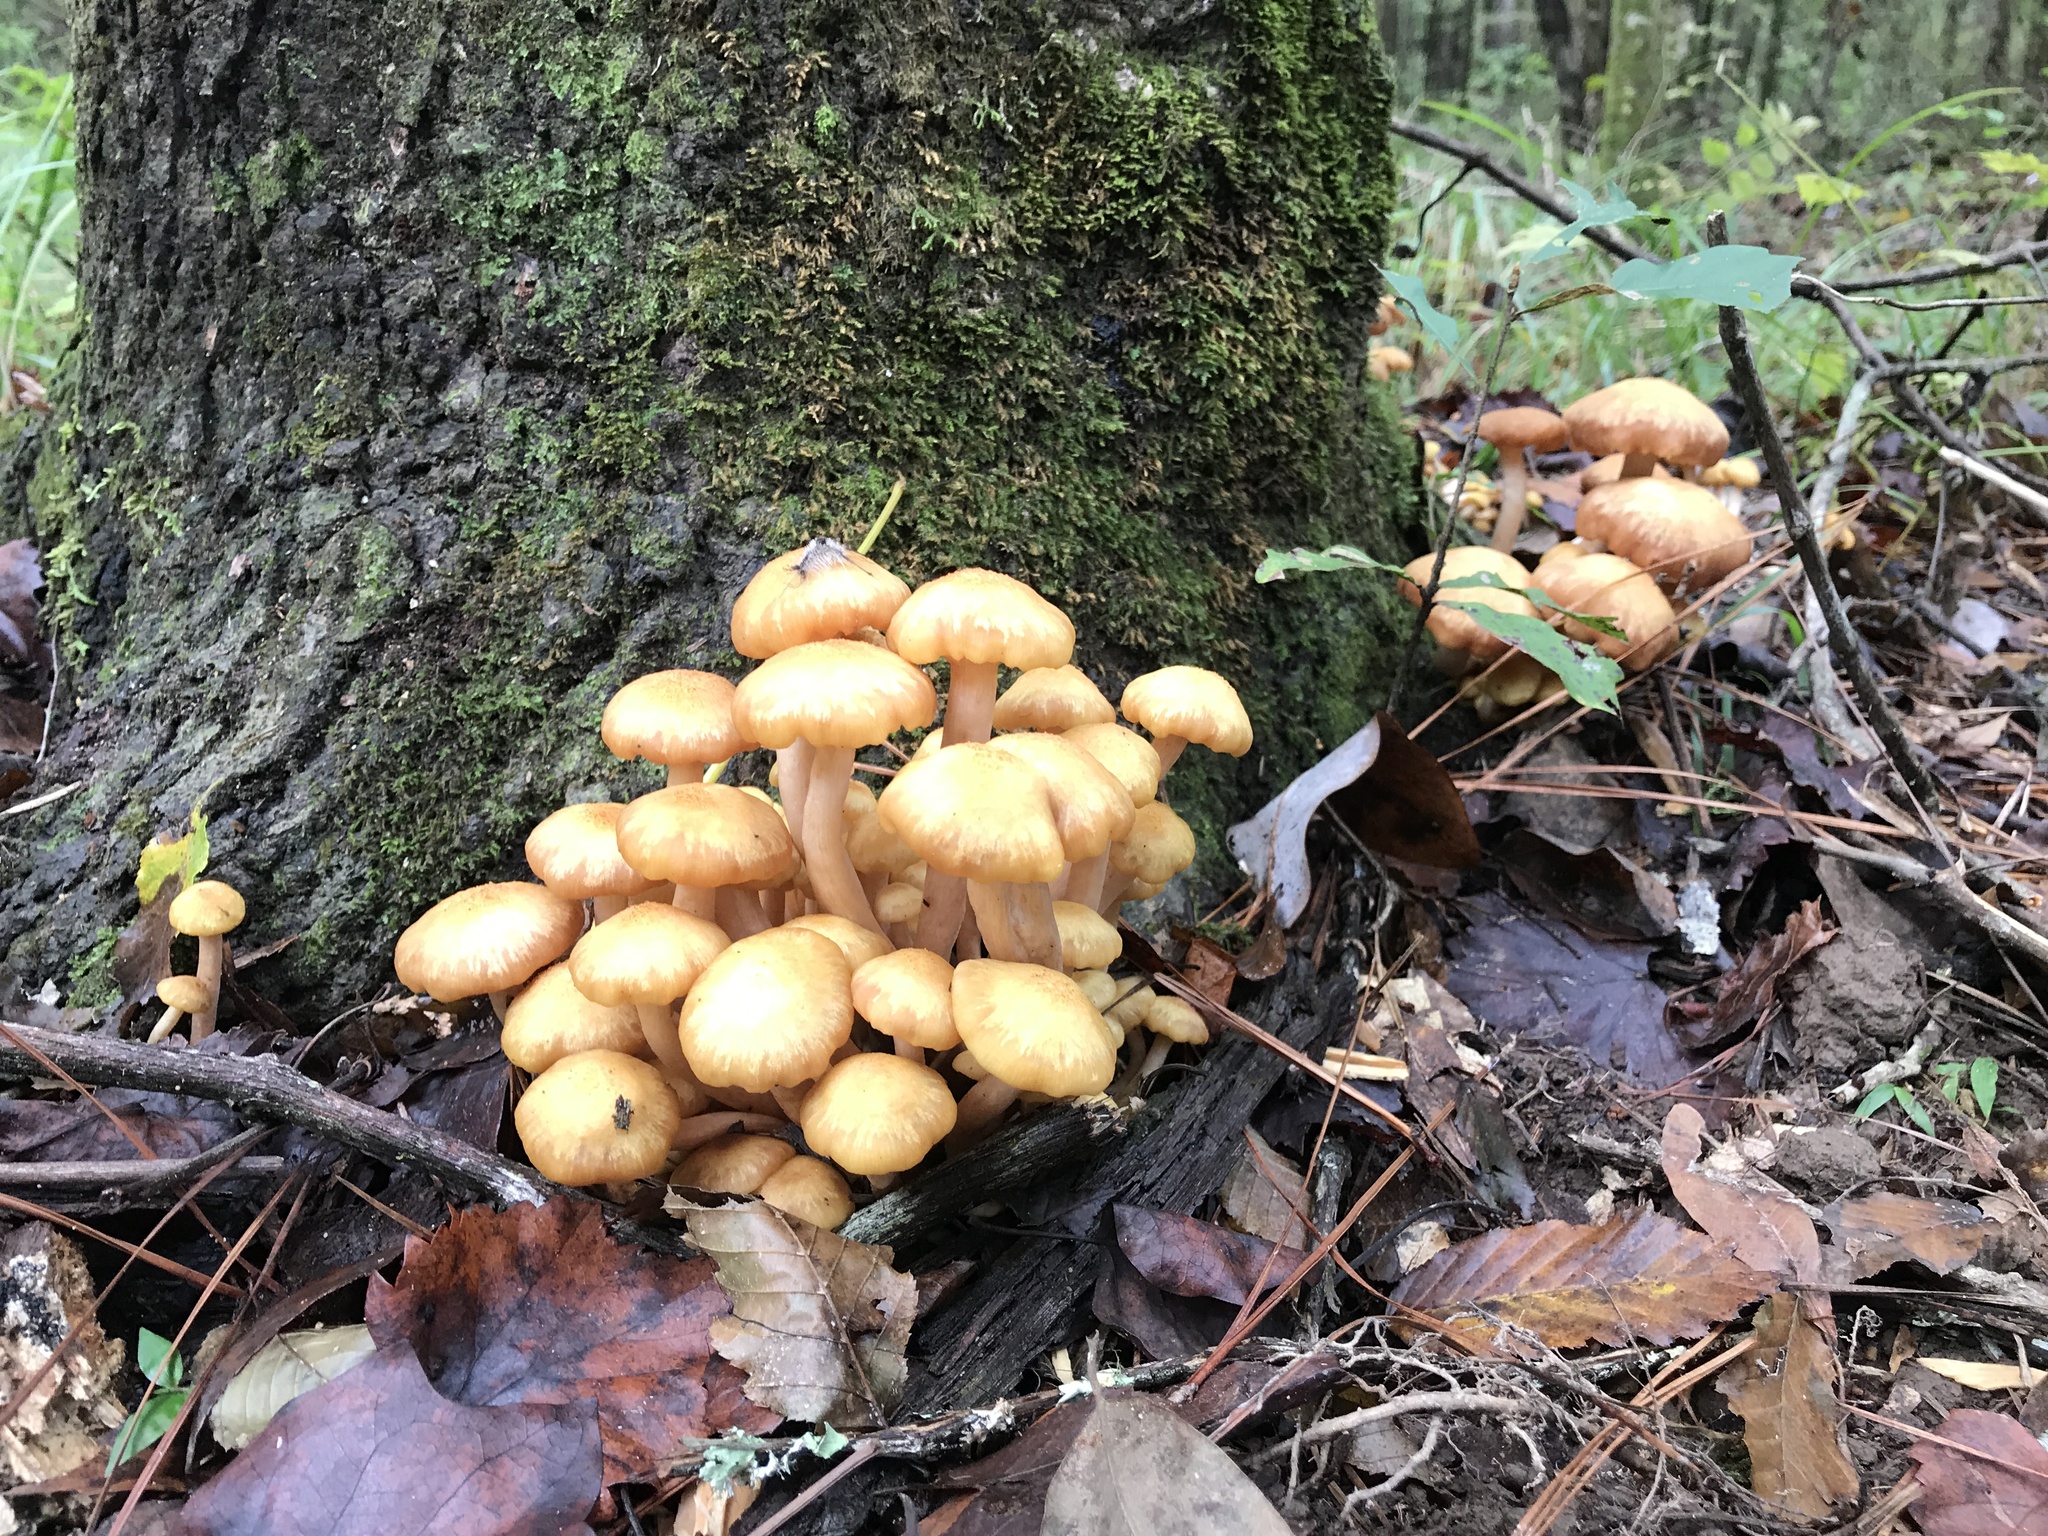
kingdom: Fungi
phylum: Basidiomycota
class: Agaricomycetes
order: Agaricales
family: Physalacriaceae
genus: Desarmillaria
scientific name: Desarmillaria caespitosa
